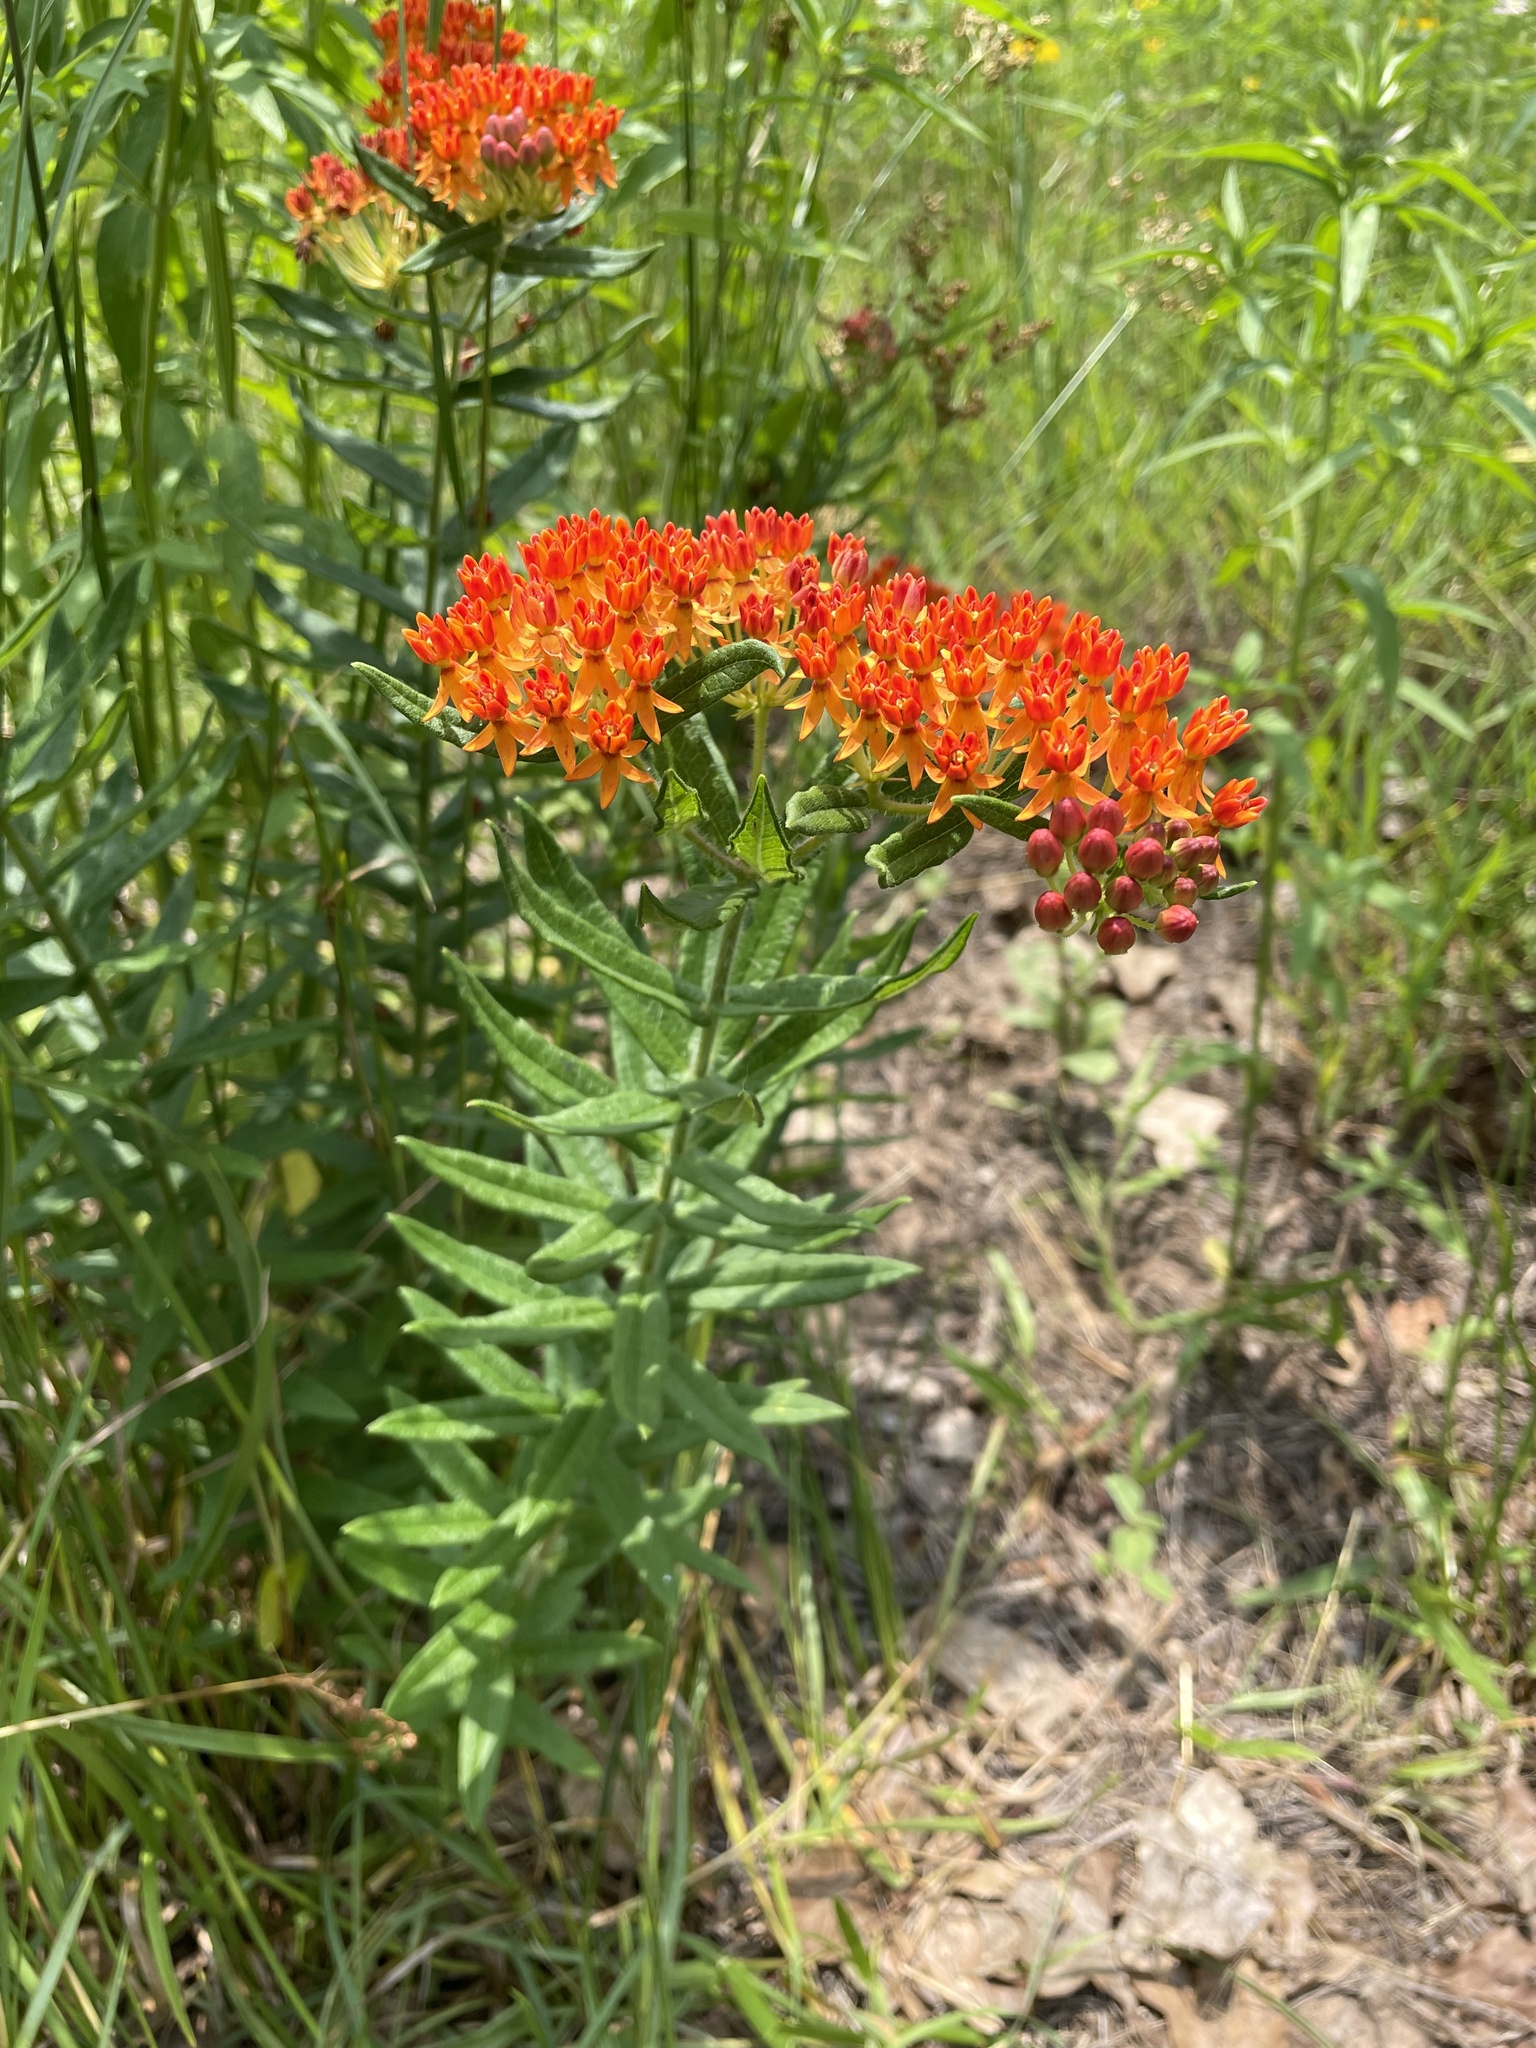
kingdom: Plantae
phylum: Tracheophyta
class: Magnoliopsida
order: Gentianales
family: Apocynaceae
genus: Asclepias
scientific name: Asclepias tuberosa
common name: Butterfly milkweed
